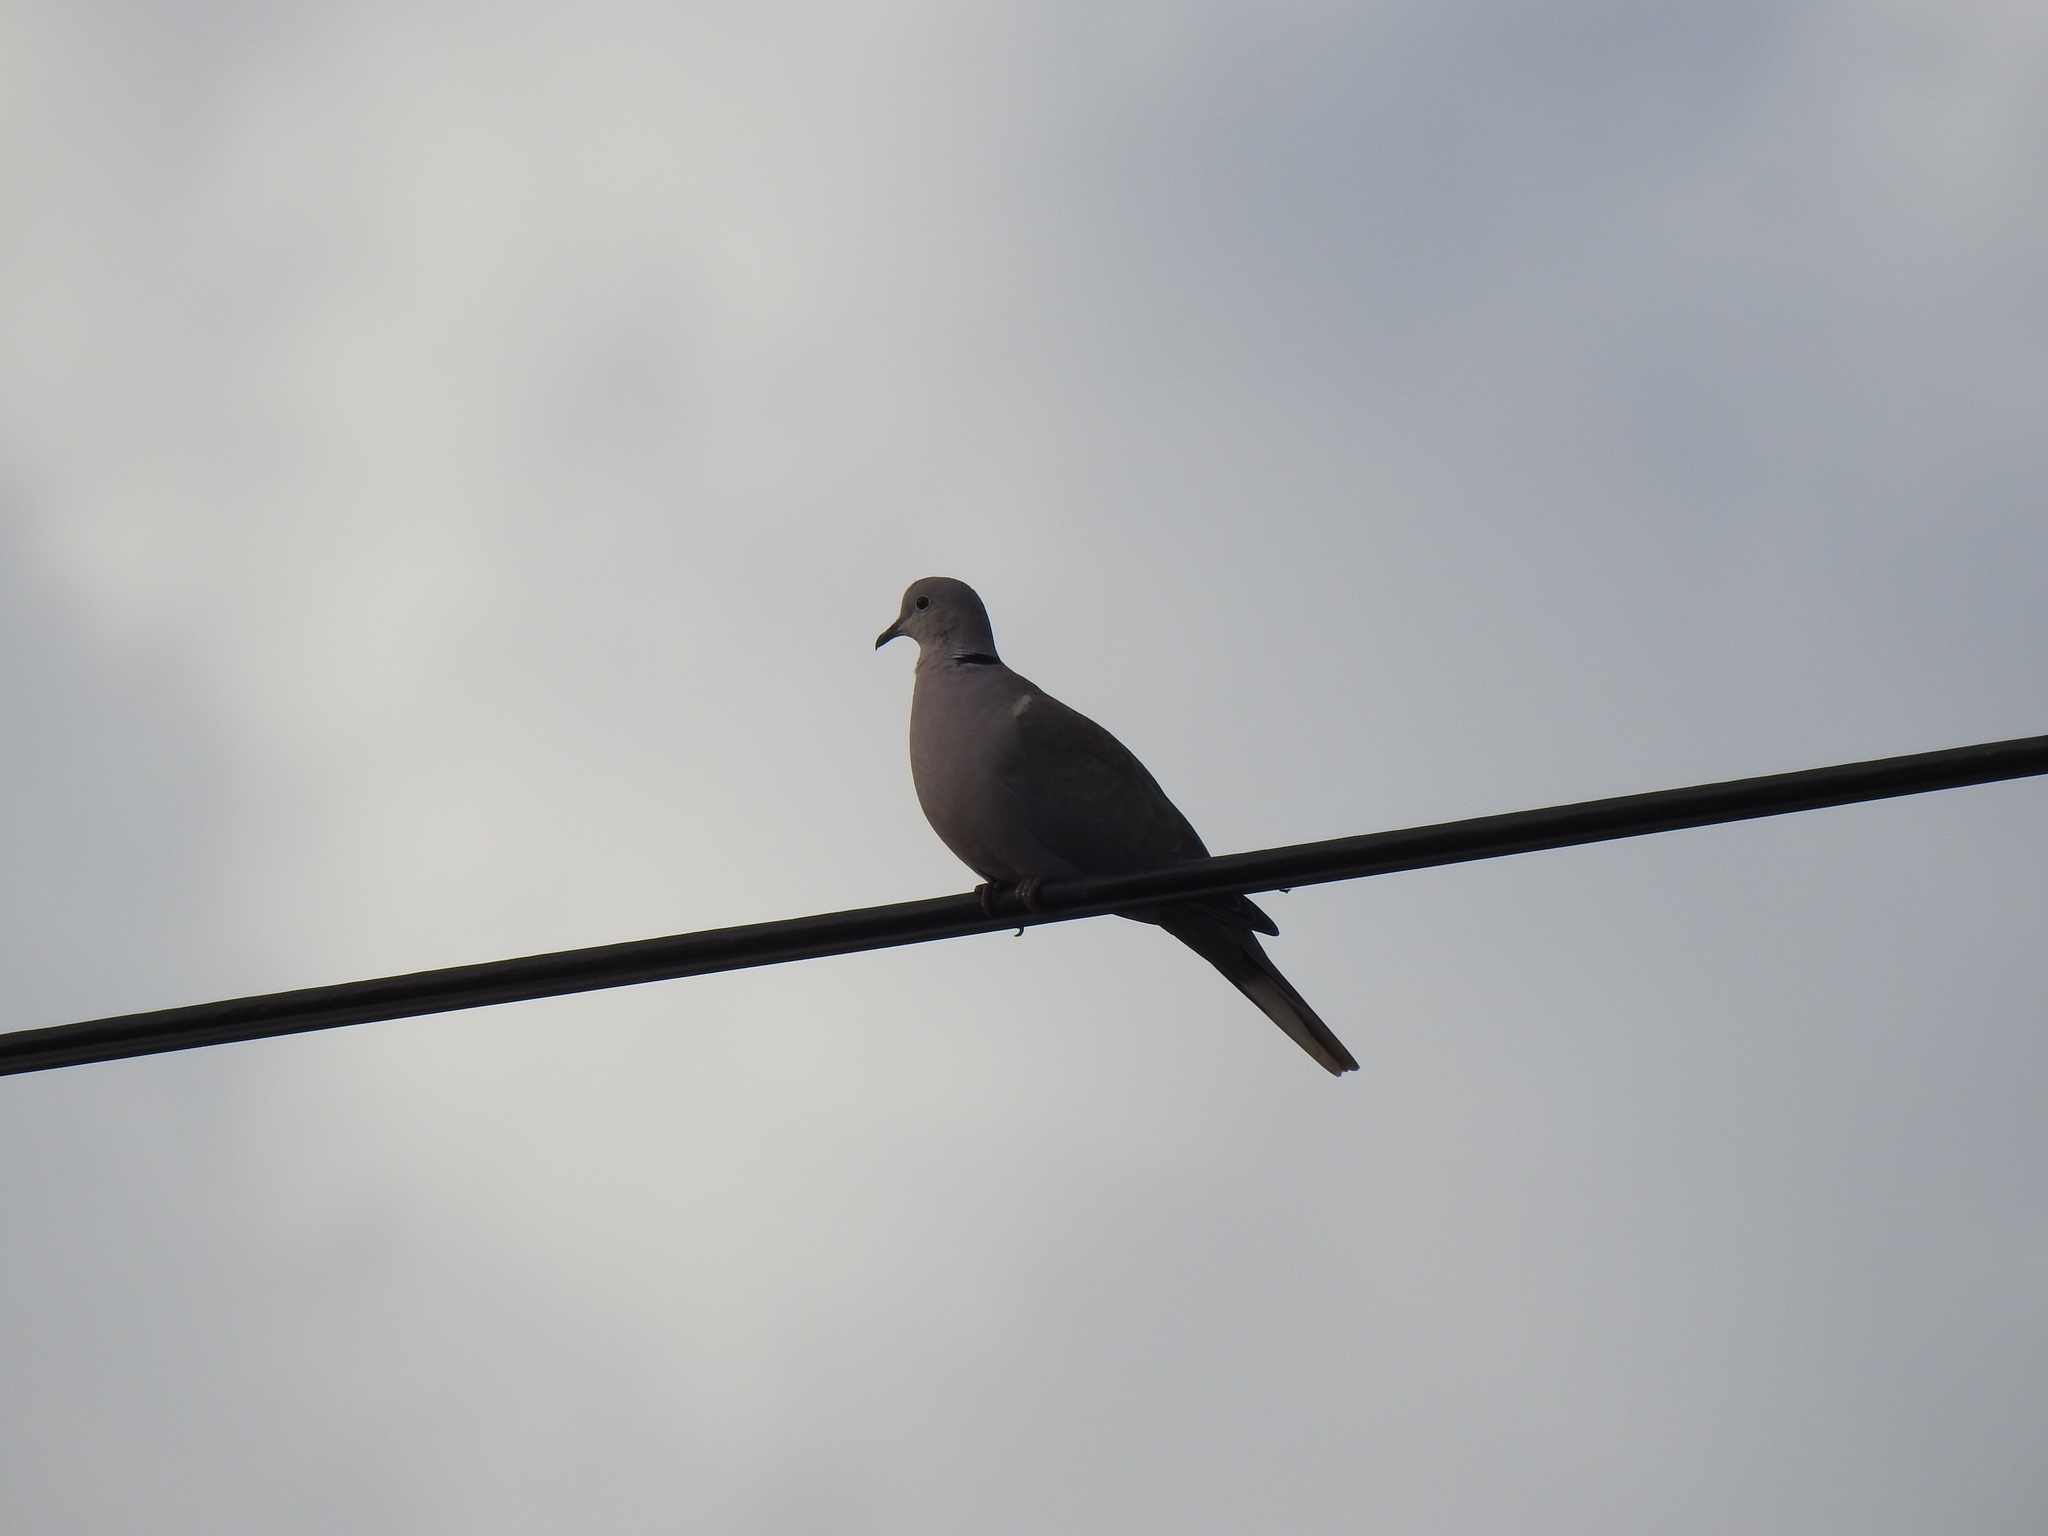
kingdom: Animalia
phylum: Chordata
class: Aves
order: Columbiformes
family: Columbidae
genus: Streptopelia
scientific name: Streptopelia decaocto
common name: Eurasian collared dove
